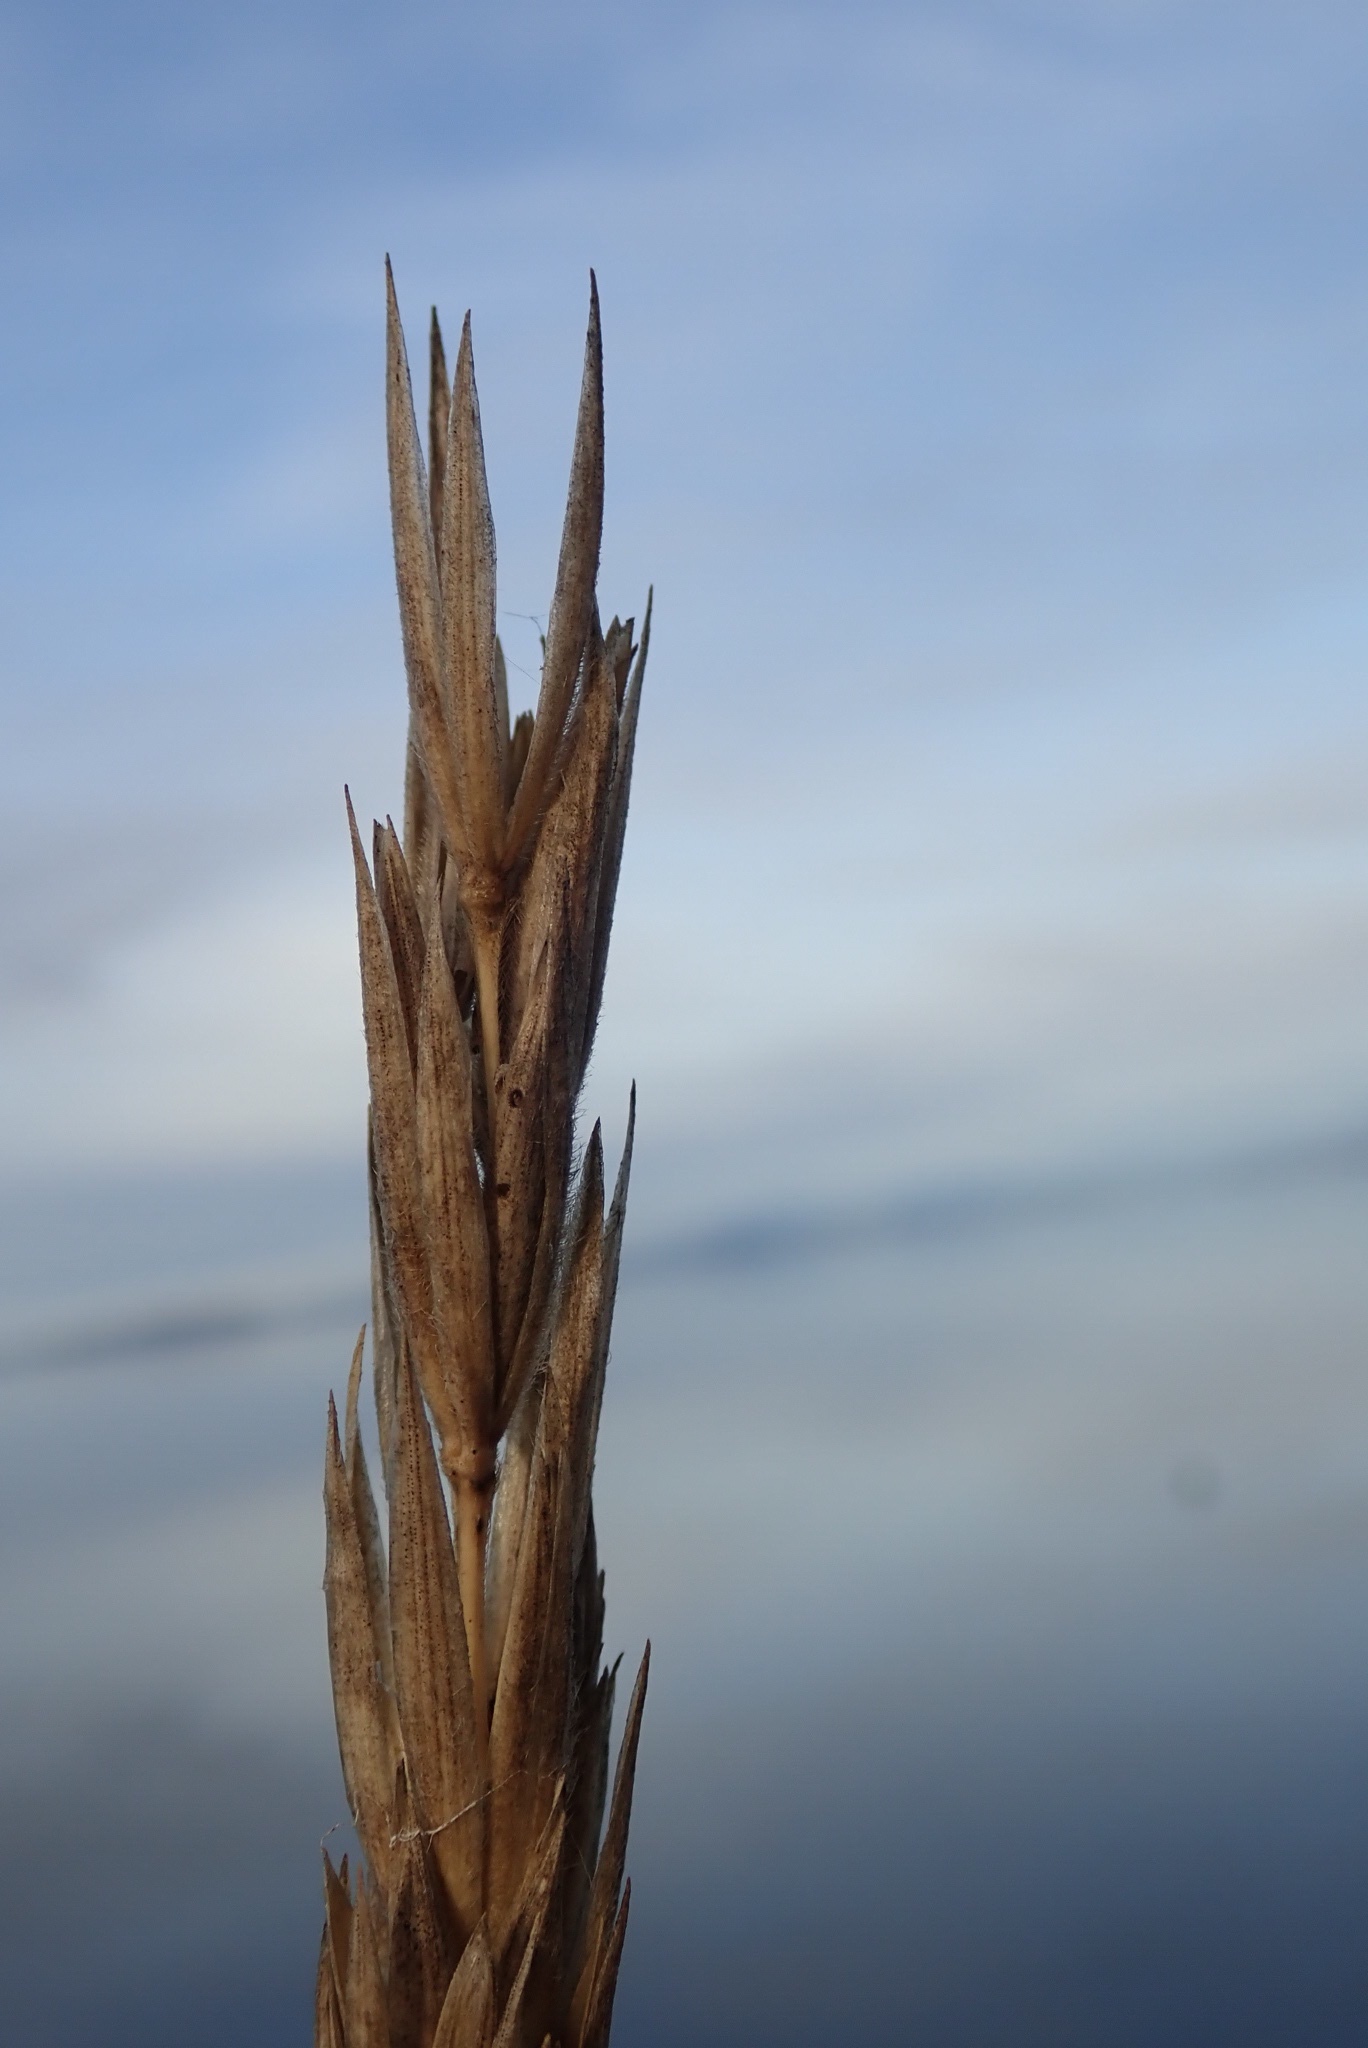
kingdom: Plantae
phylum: Tracheophyta
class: Liliopsida
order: Poales
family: Poaceae
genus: Leymus
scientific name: Leymus mollis
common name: American dune grass
